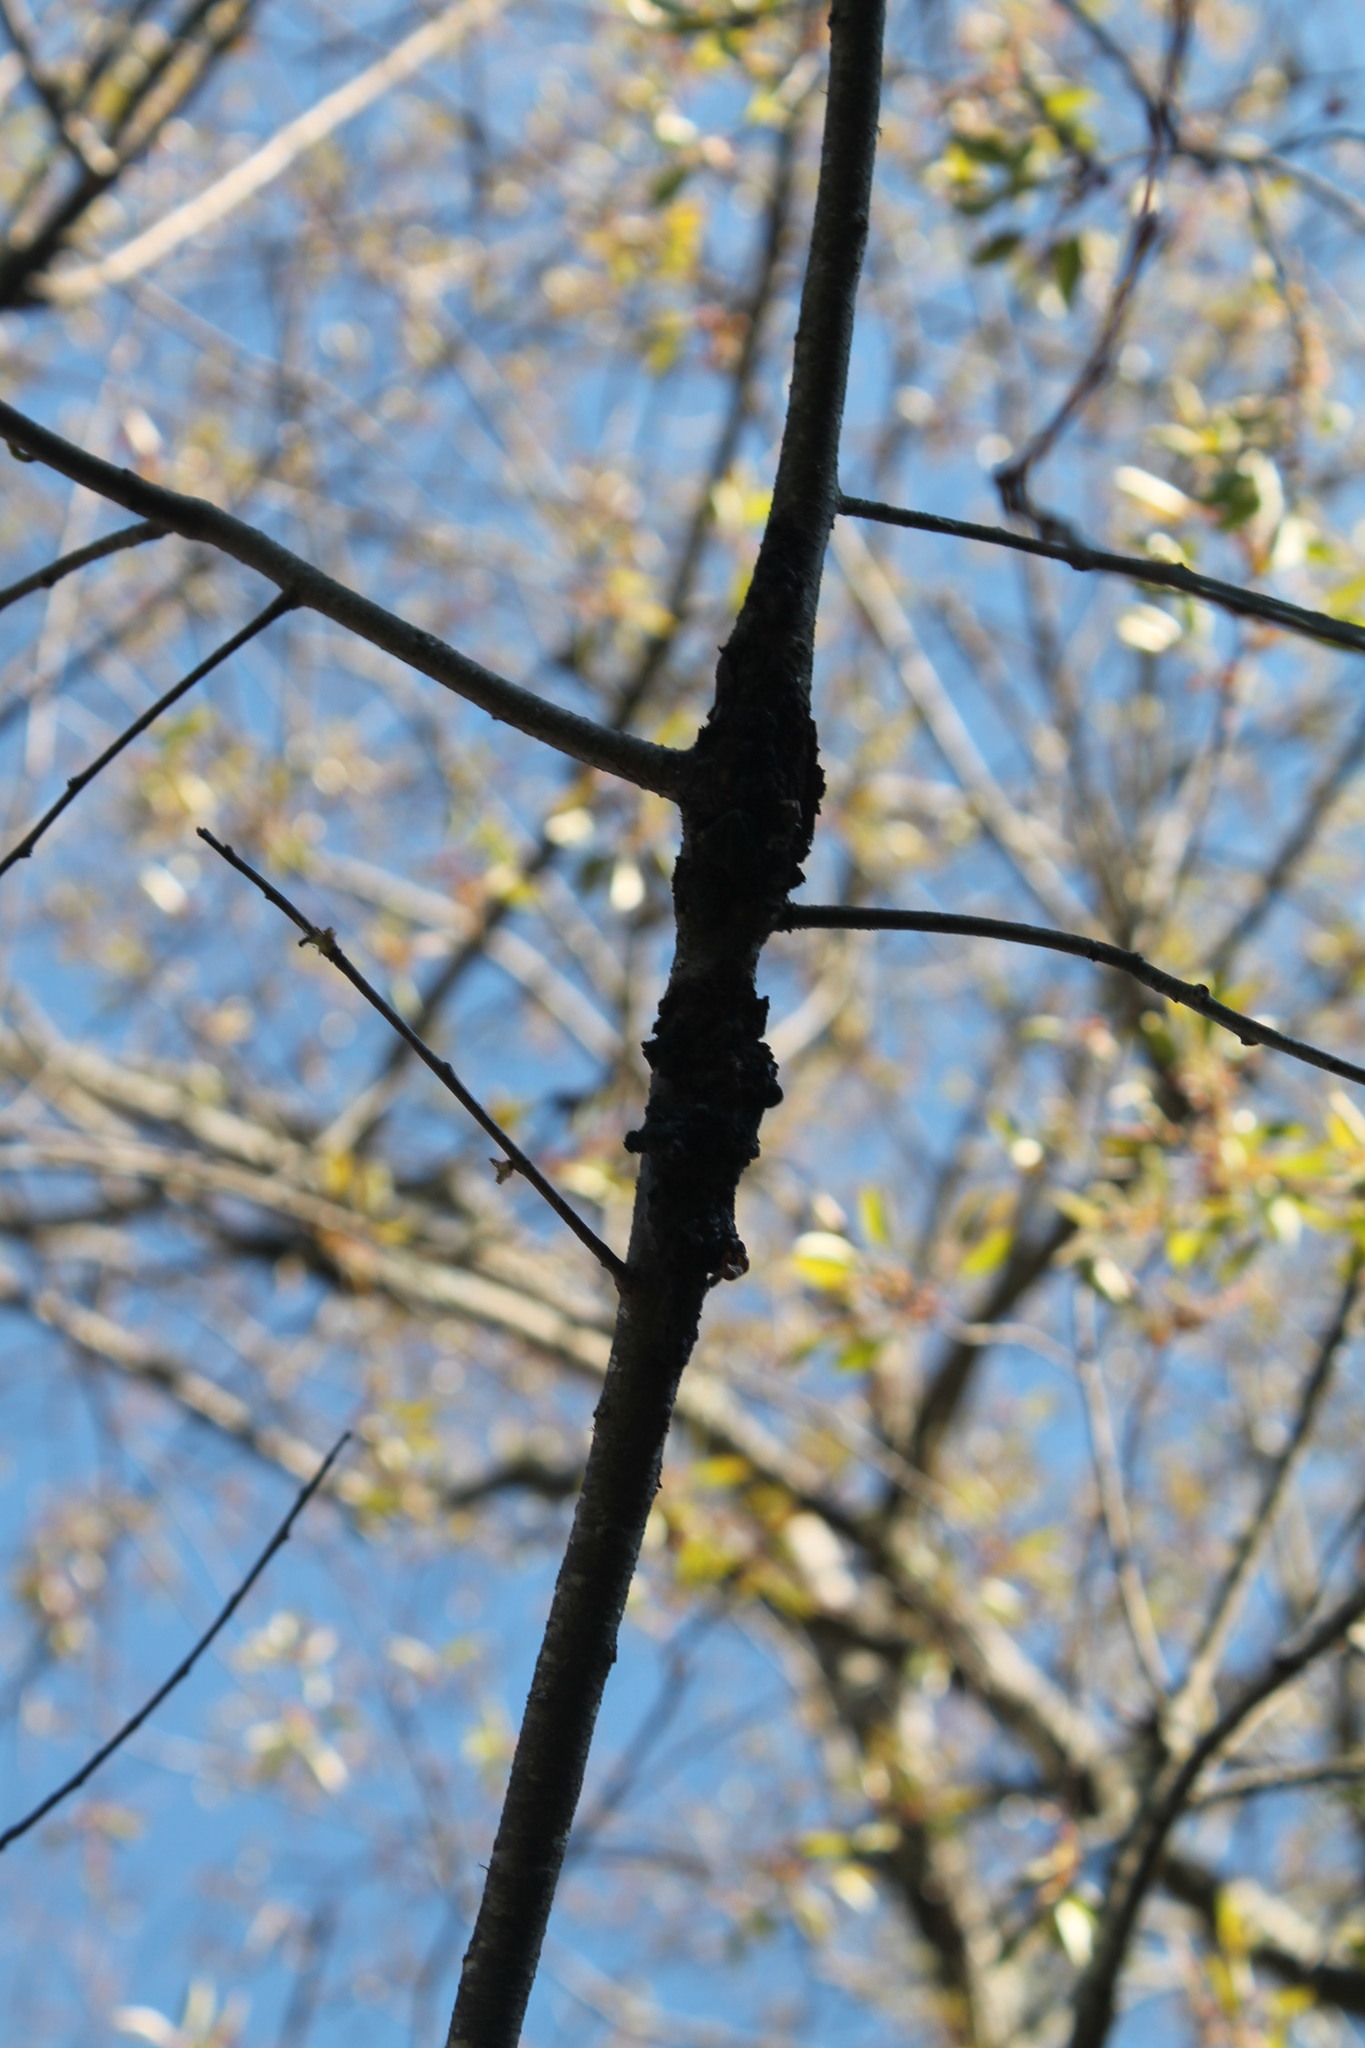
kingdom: Fungi
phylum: Ascomycota
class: Dothideomycetes
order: Venturiales
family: Venturiaceae
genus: Apiosporina
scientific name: Apiosporina morbosa
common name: Black knot
